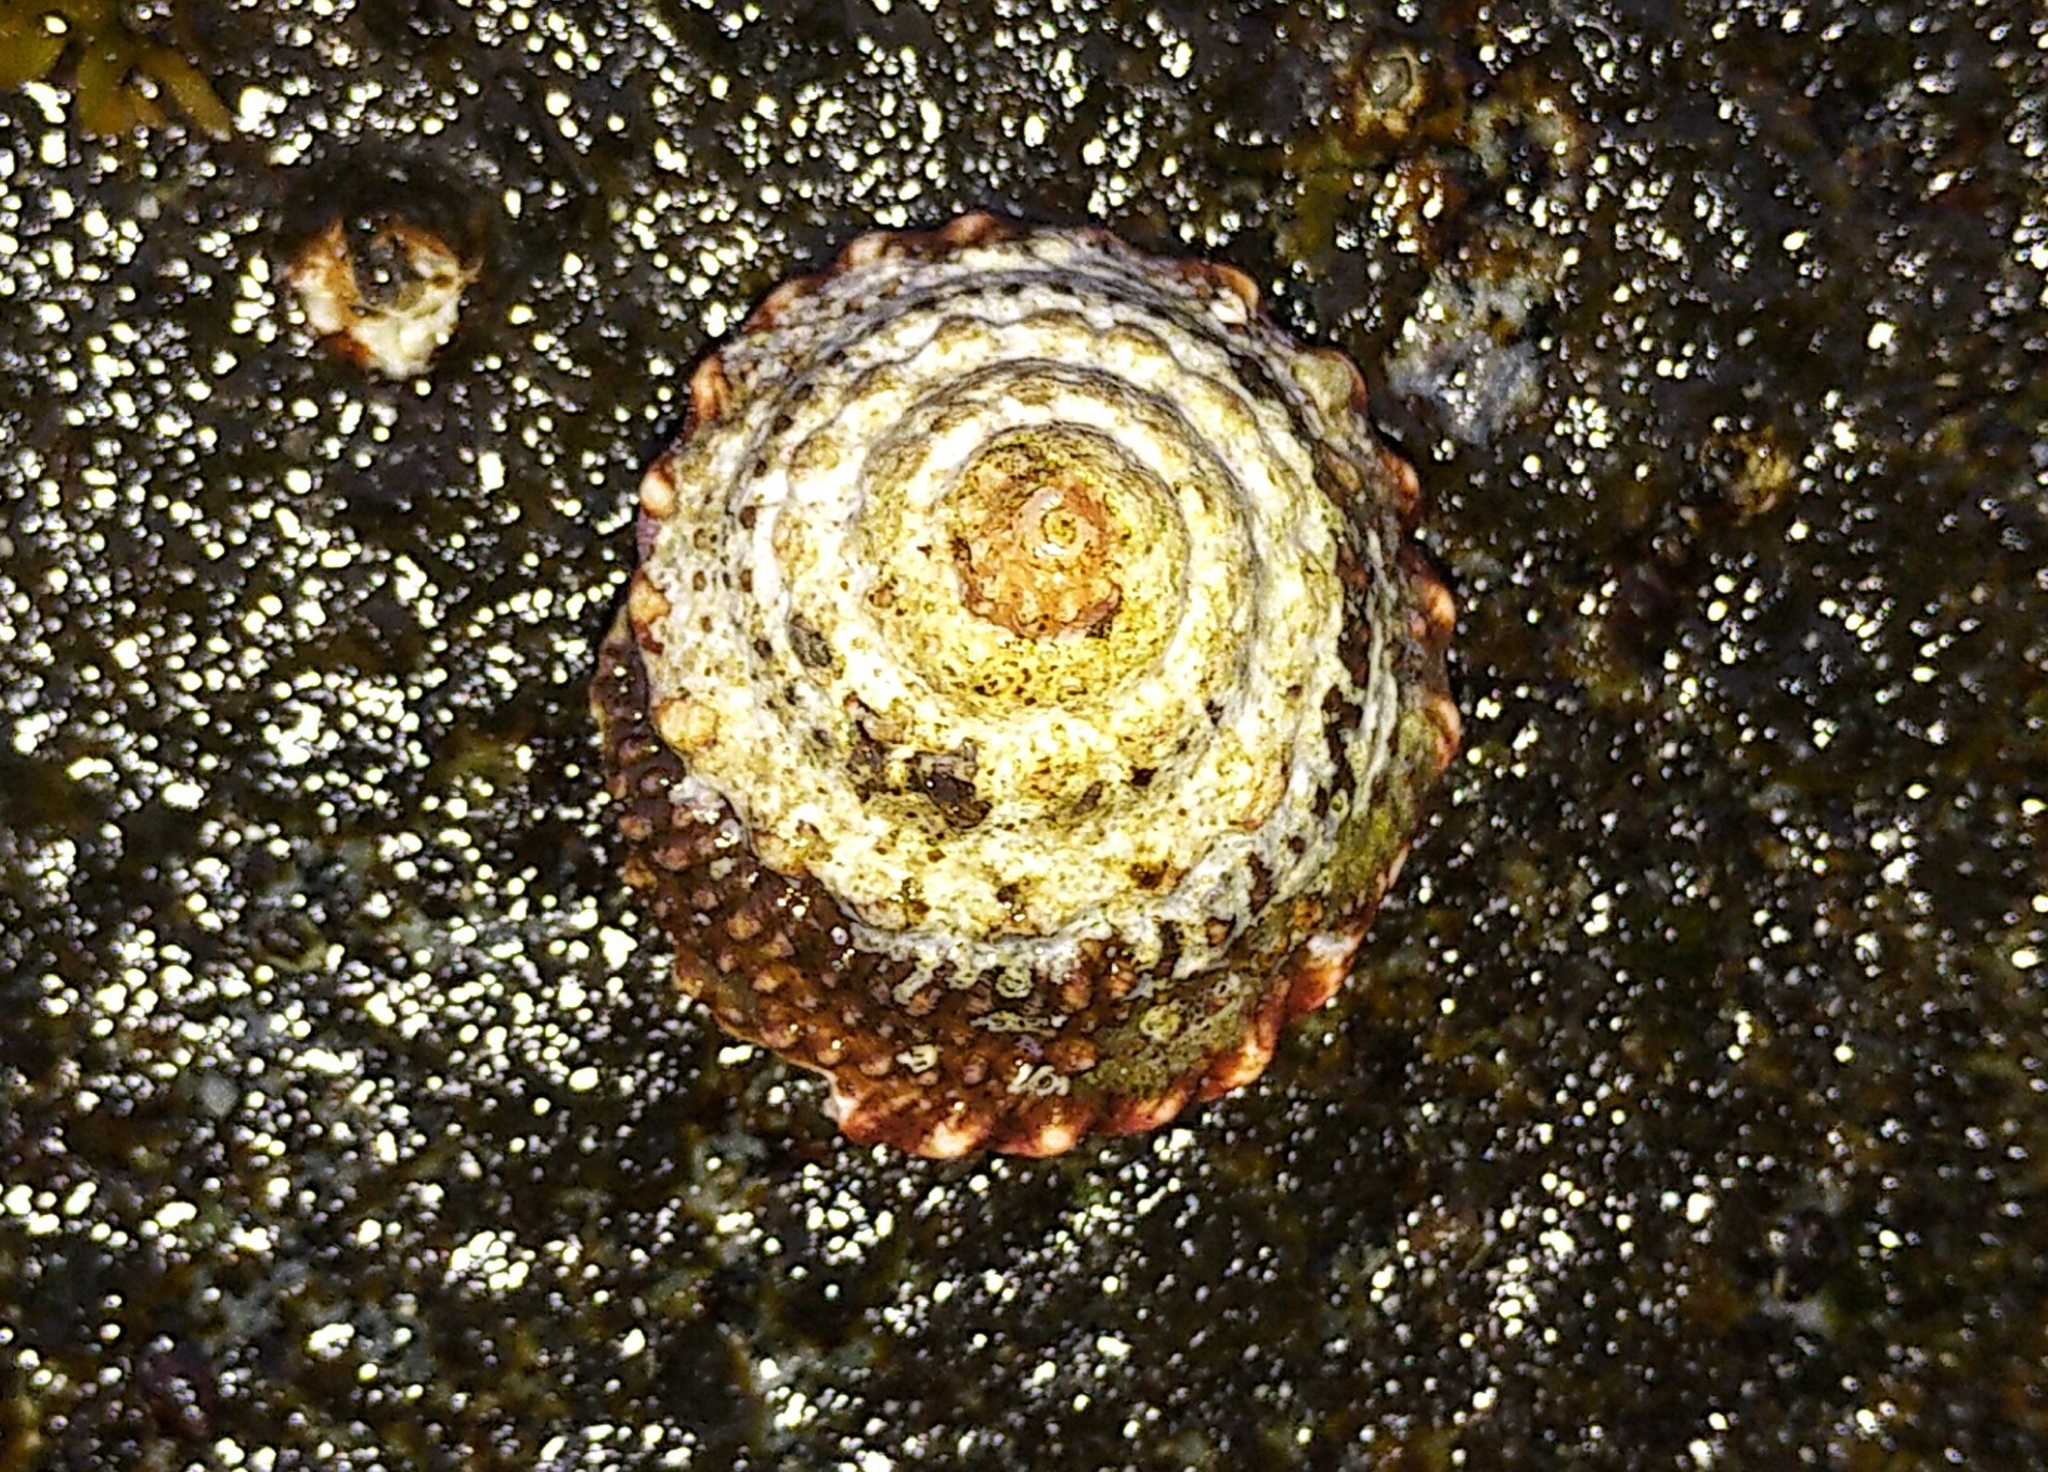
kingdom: Animalia
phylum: Mollusca
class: Gastropoda
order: Trochida
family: Turbinidae
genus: Pomaulax
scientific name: Pomaulax gibberosus
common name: Red turban
